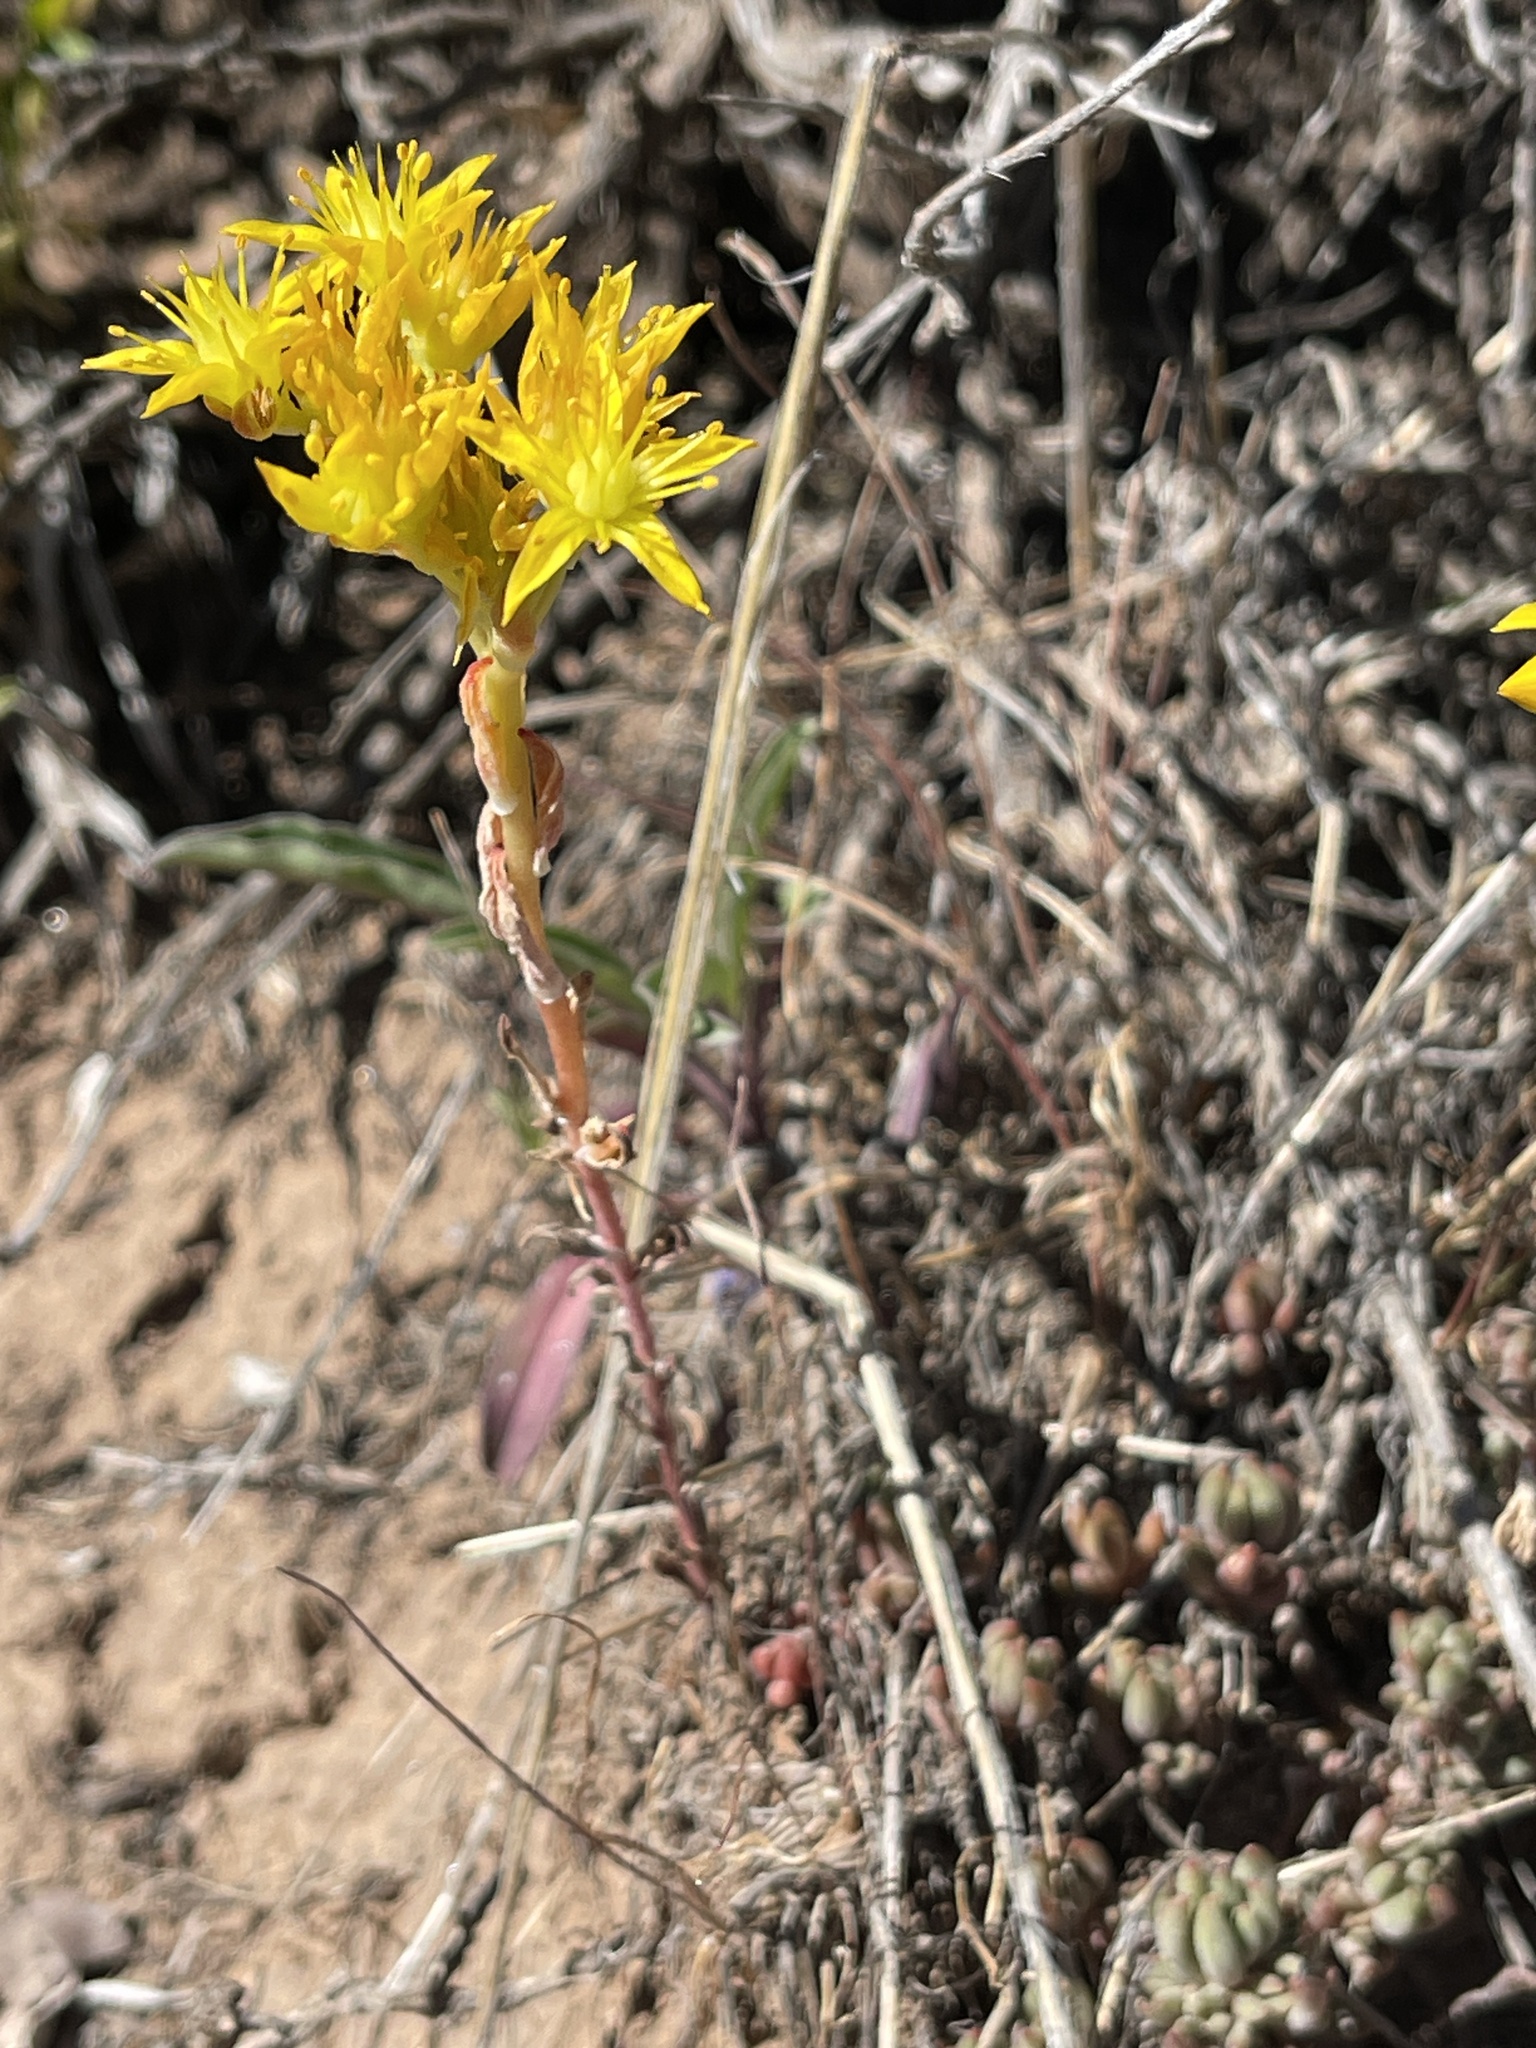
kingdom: Plantae
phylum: Tracheophyta
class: Magnoliopsida
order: Saxifragales
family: Crassulaceae
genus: Sedum
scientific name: Sedum lanceolatum
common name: Common stonecrop
